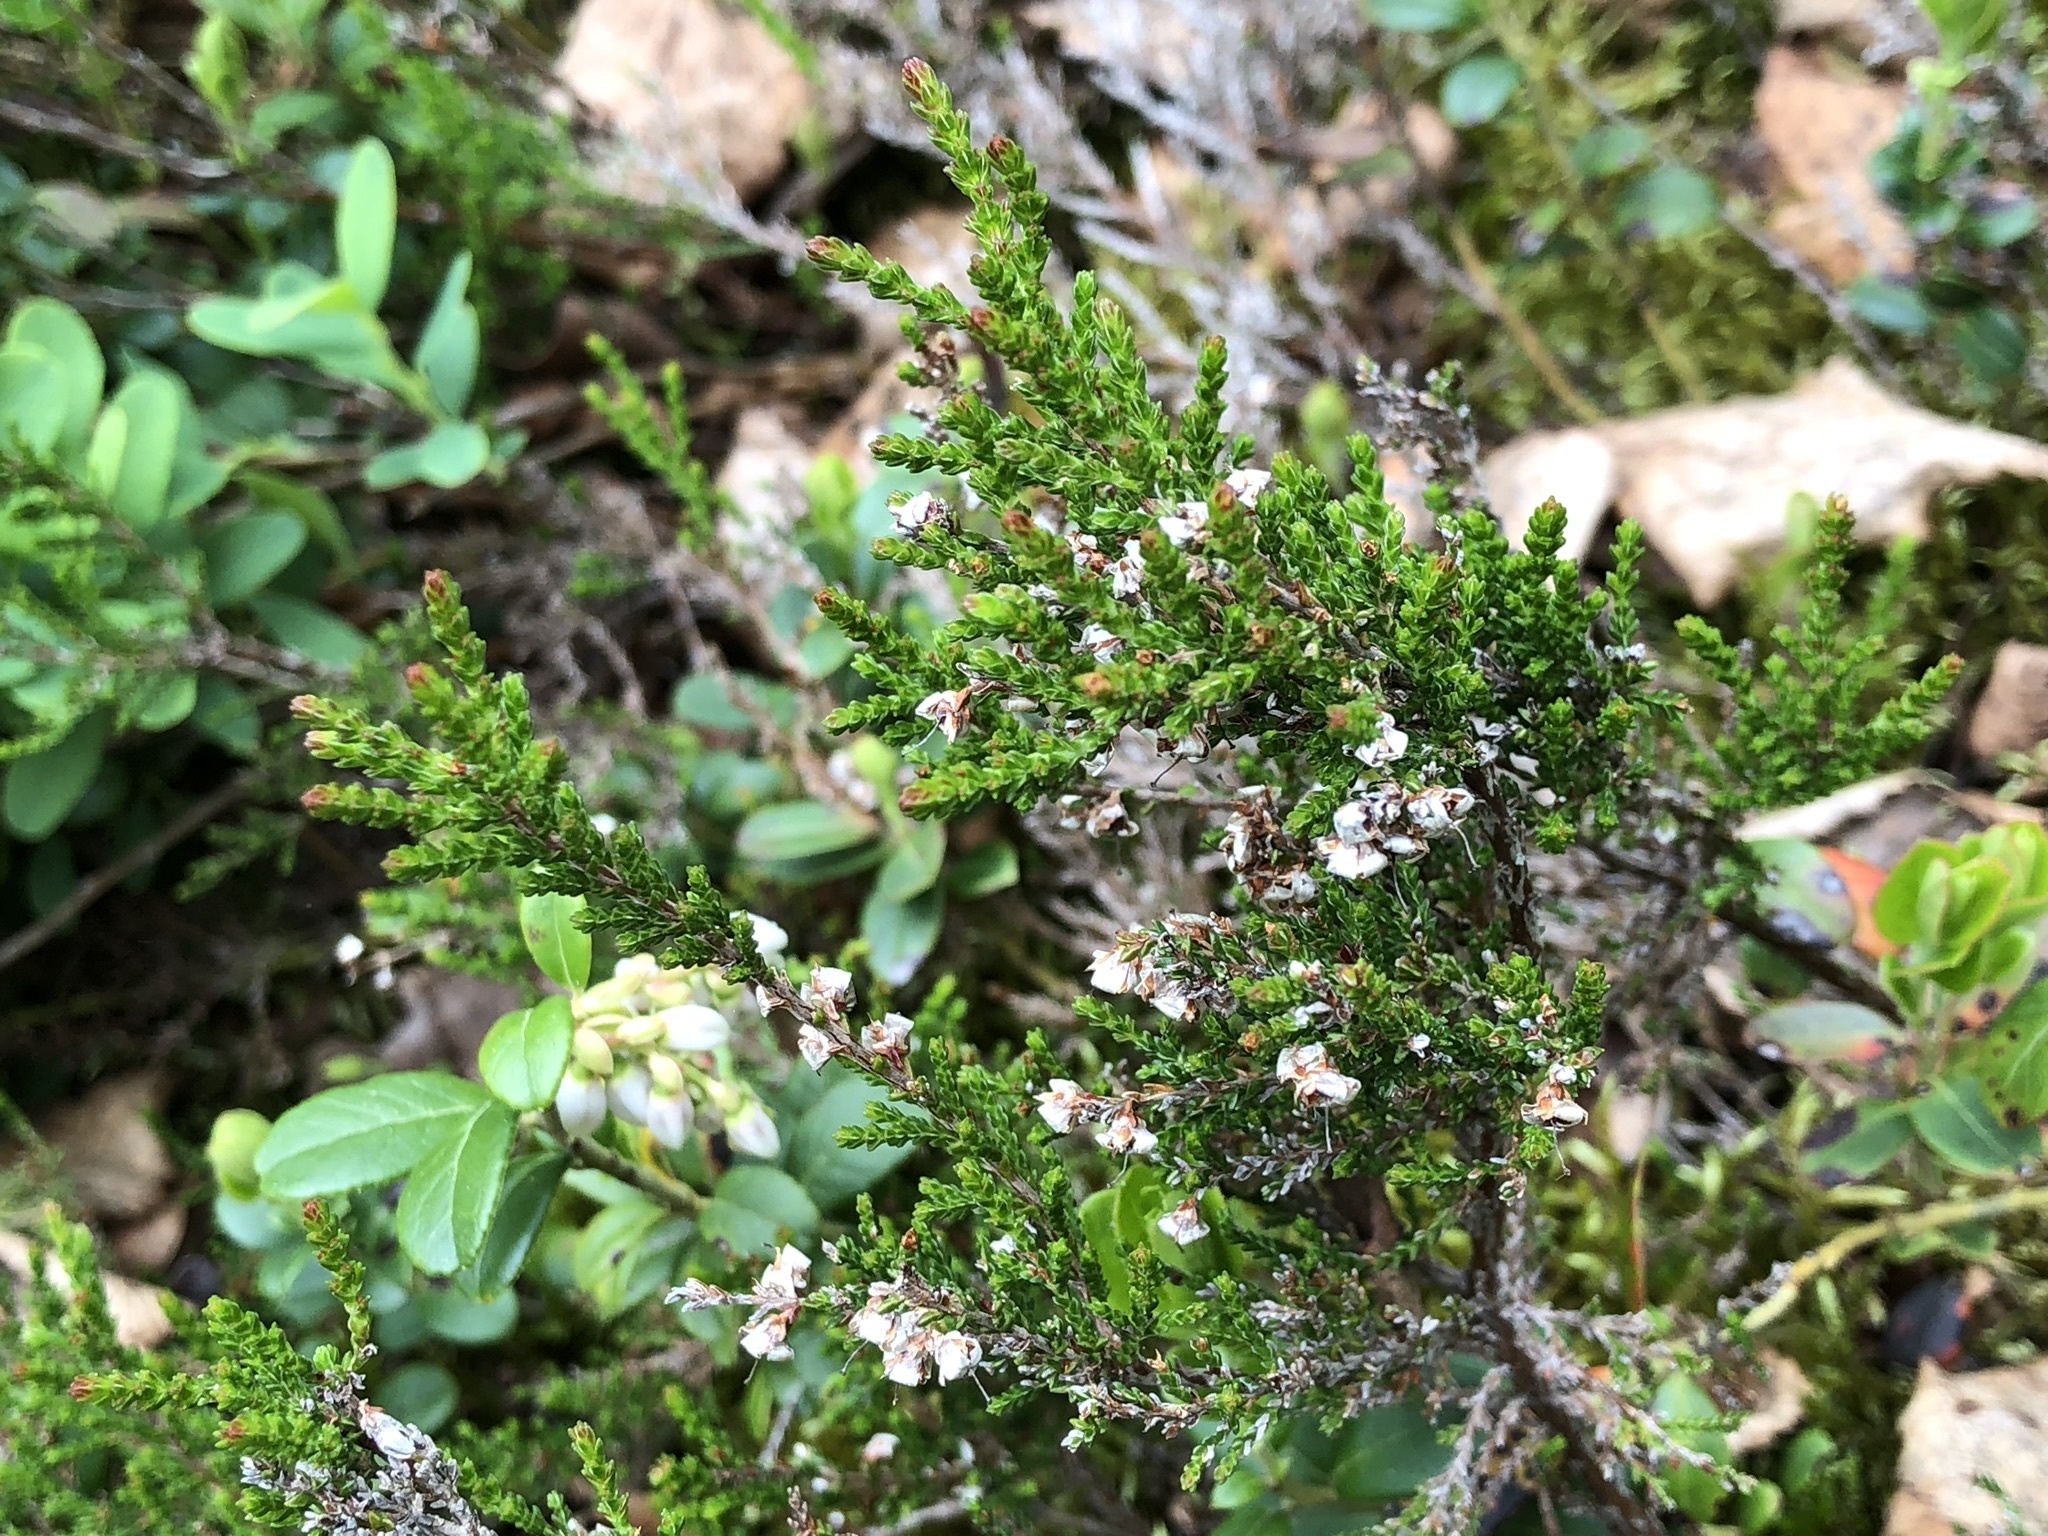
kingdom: Plantae
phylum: Tracheophyta
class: Magnoliopsida
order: Ericales
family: Ericaceae
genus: Calluna
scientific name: Calluna vulgaris
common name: Heather
